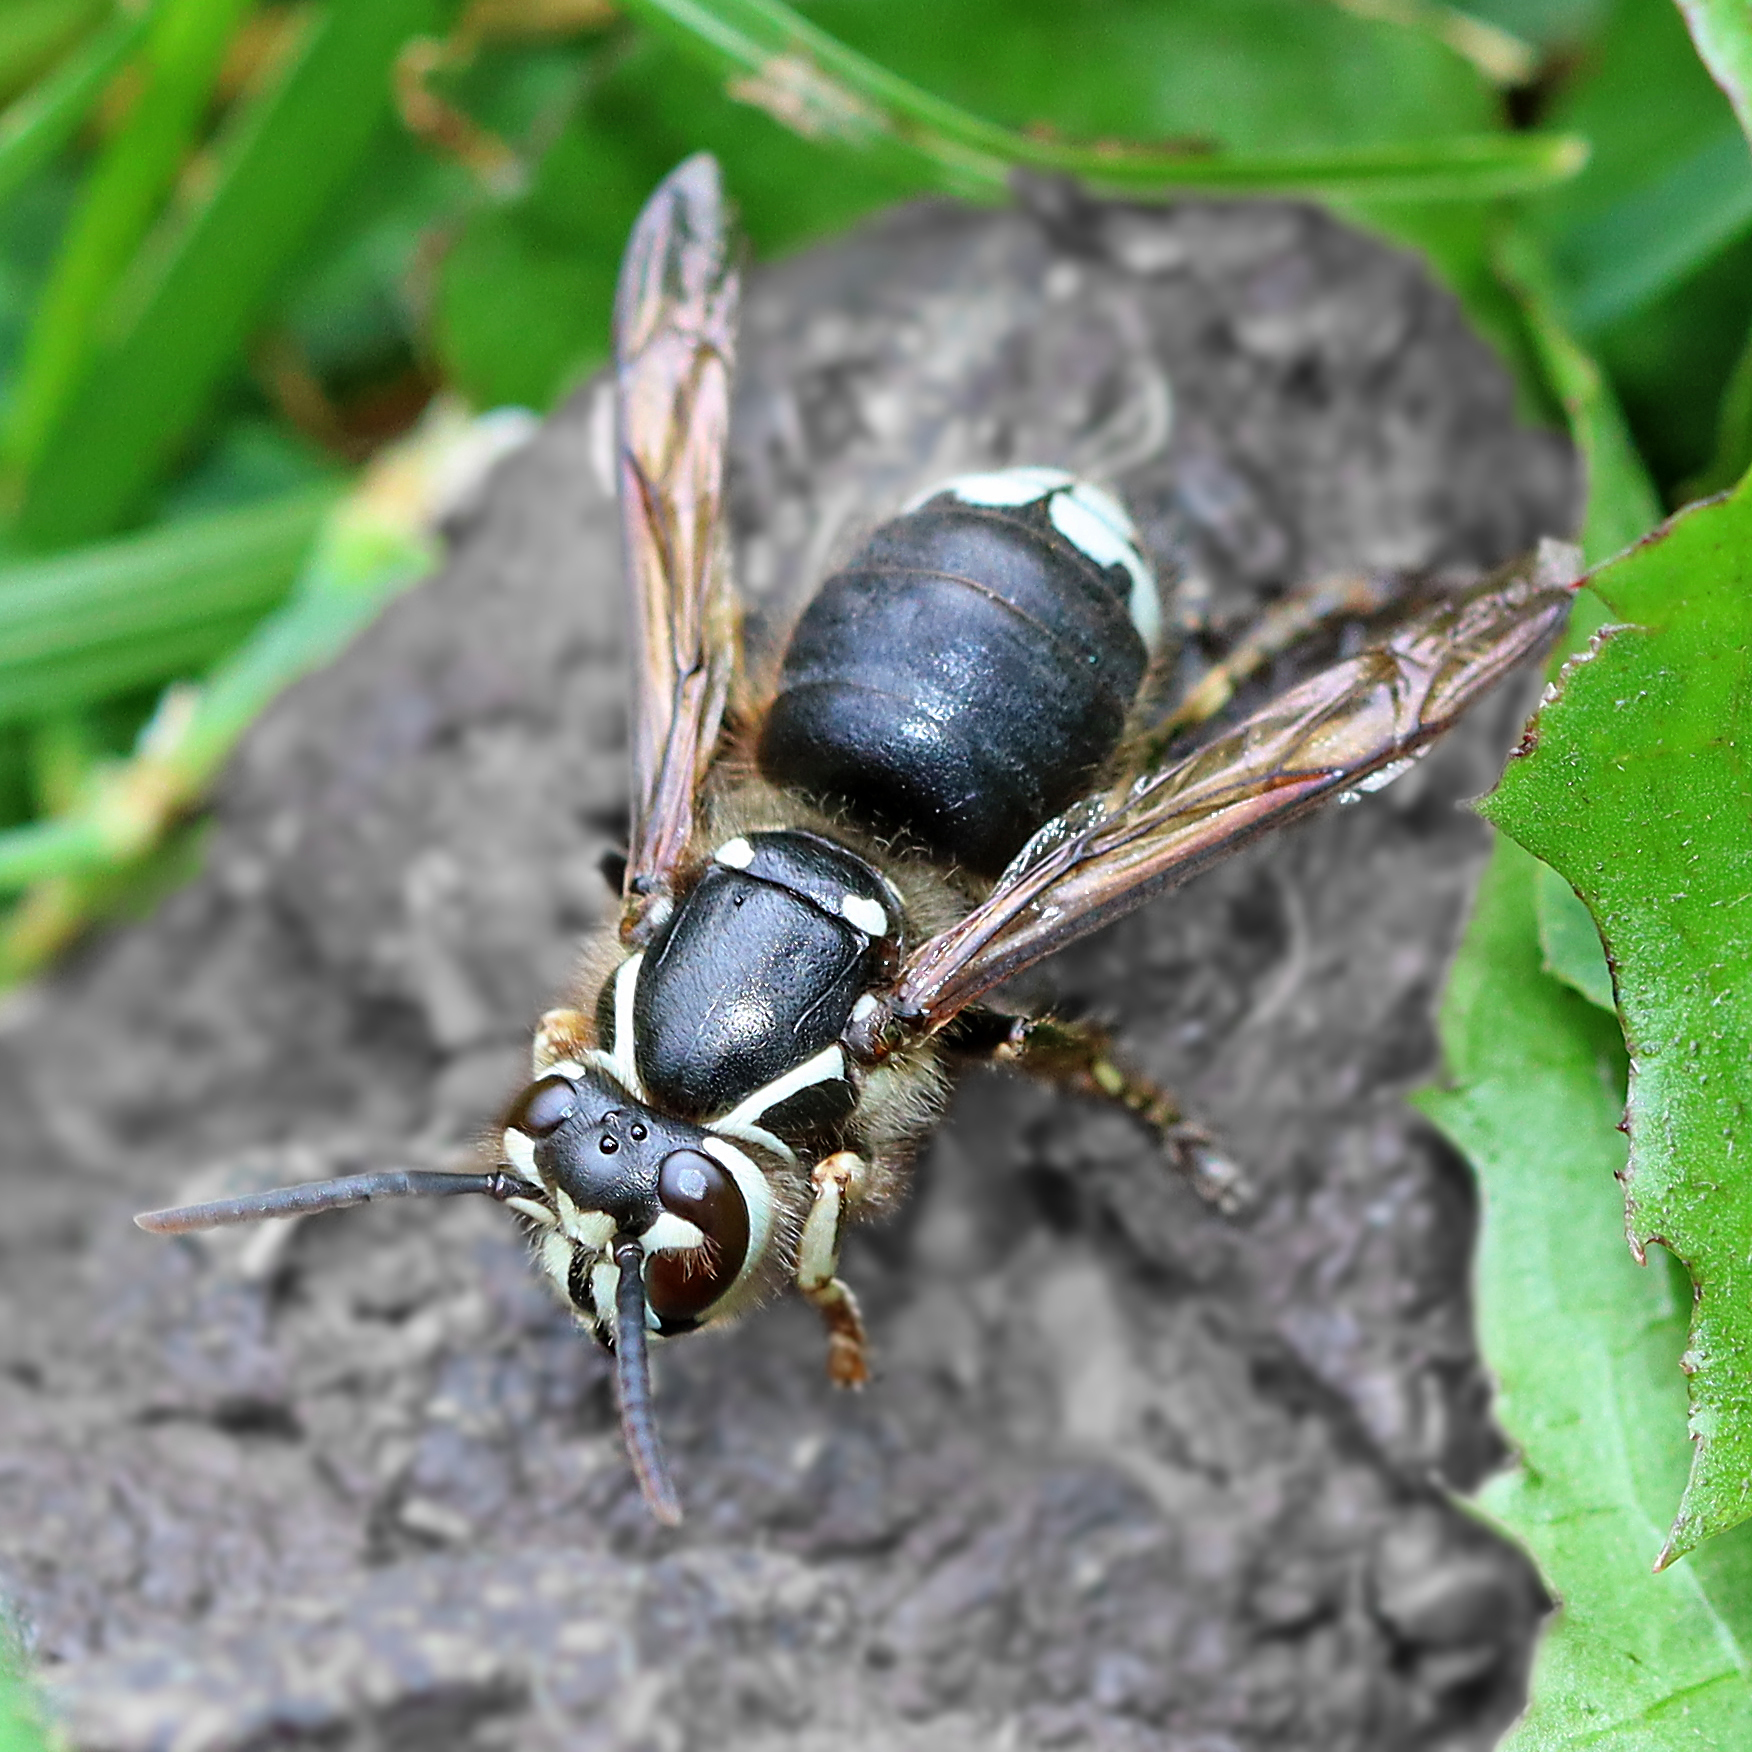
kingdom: Animalia
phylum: Arthropoda
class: Insecta
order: Hymenoptera
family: Vespidae
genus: Dolichovespula
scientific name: Dolichovespula maculata
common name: Bald-faced hornet
